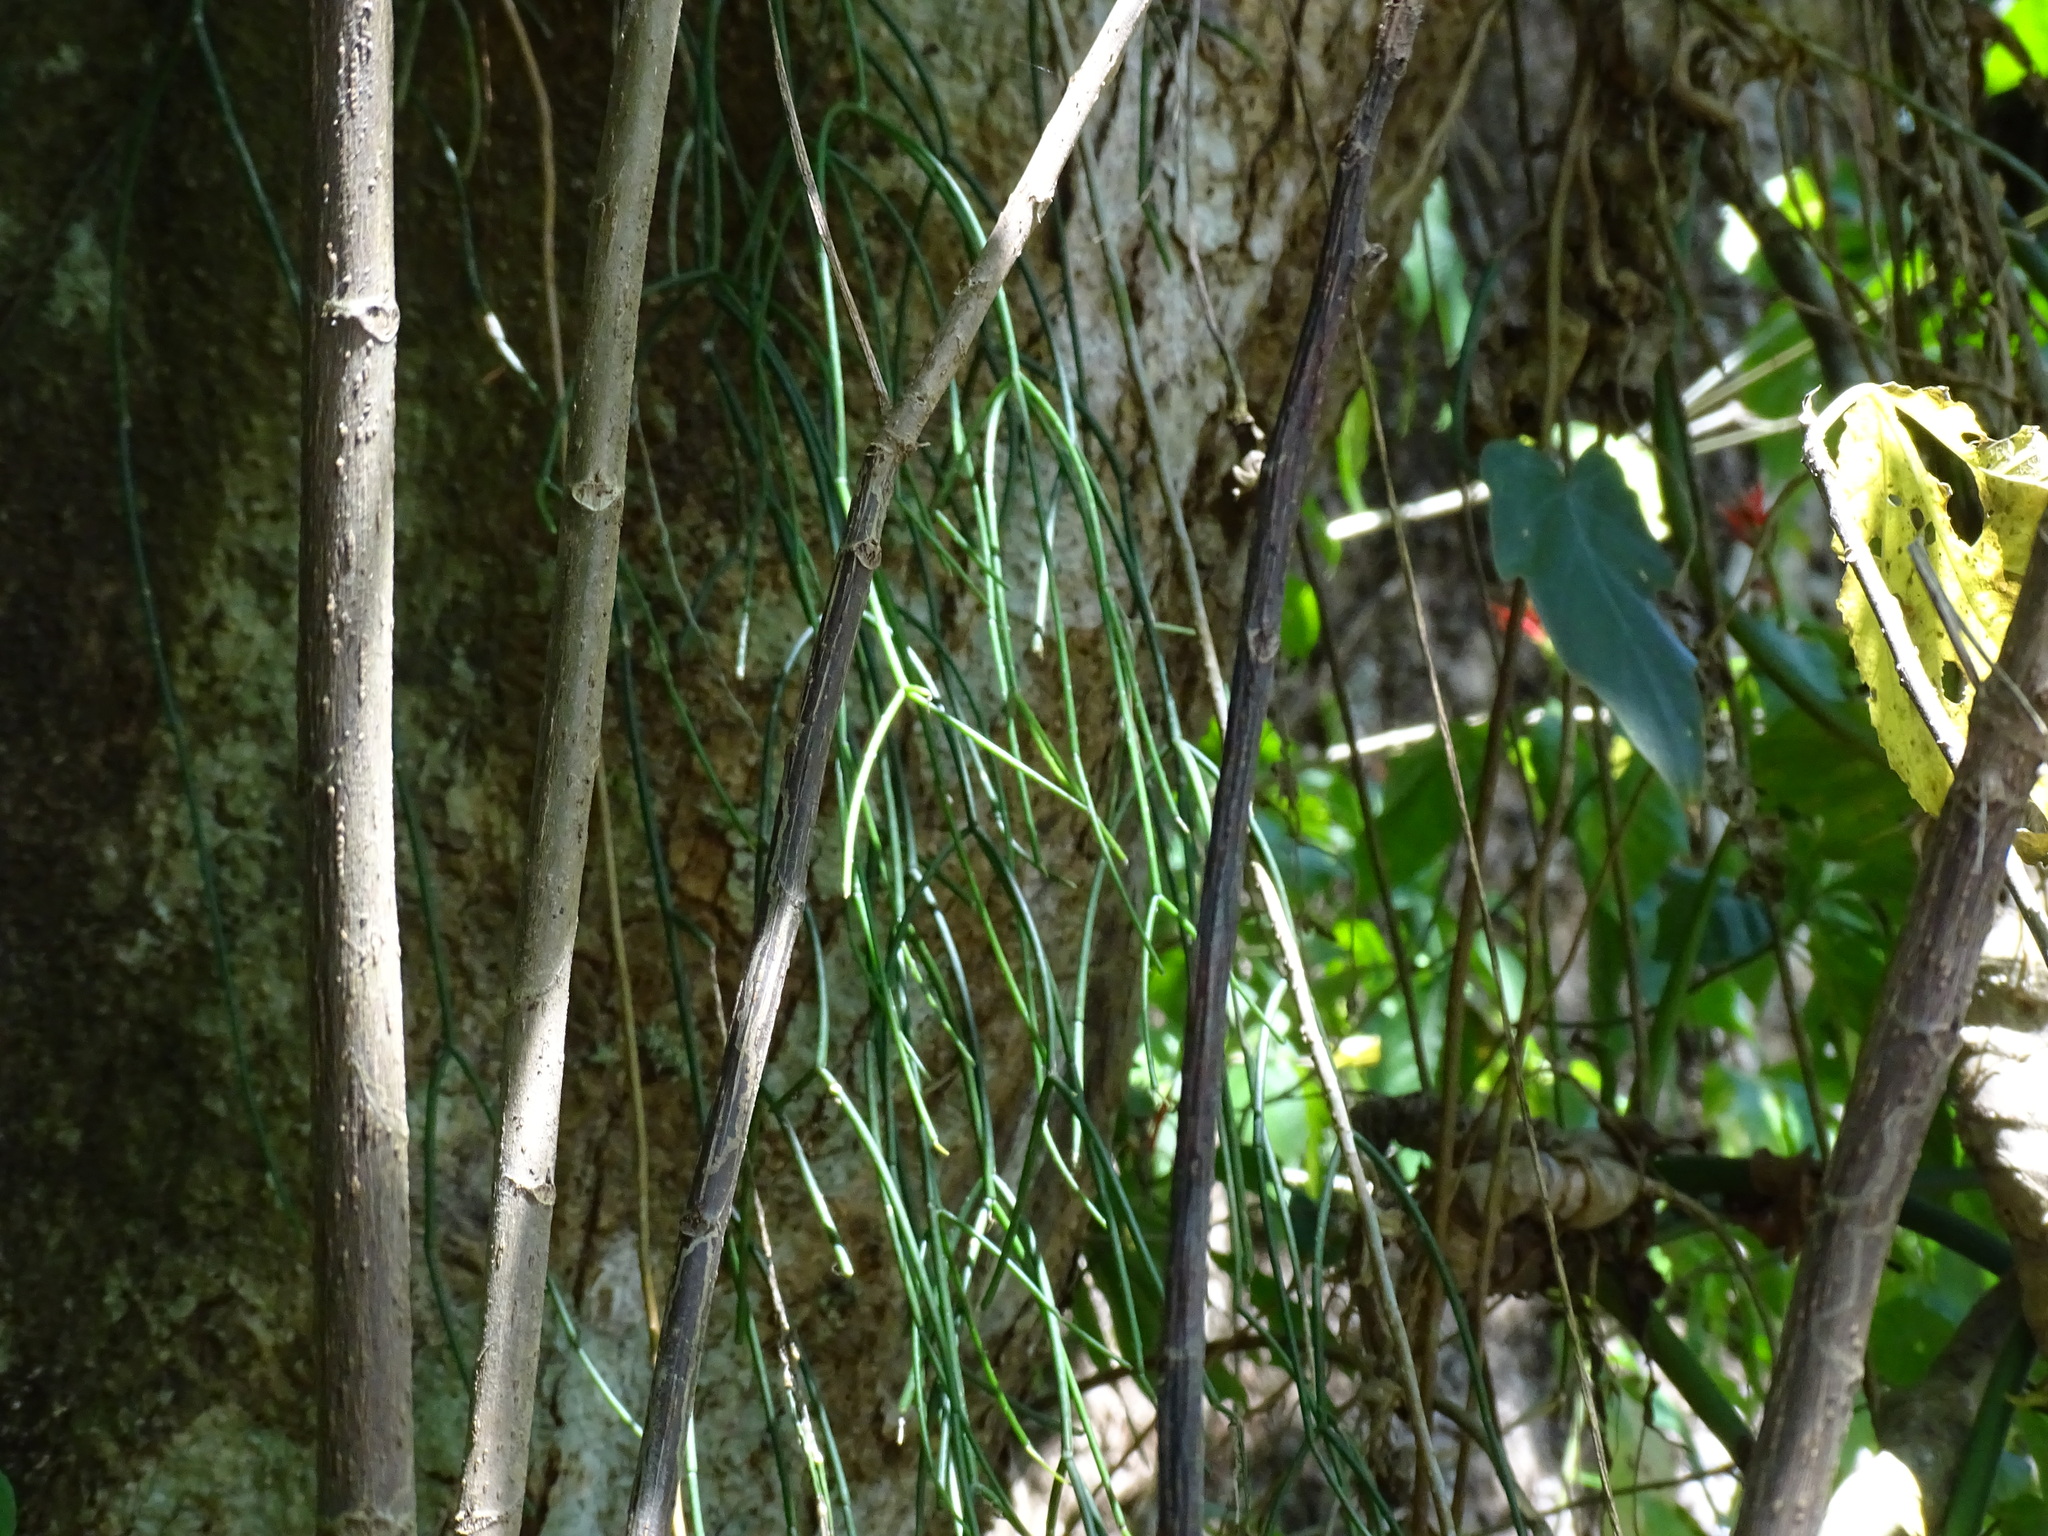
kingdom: Plantae
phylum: Tracheophyta
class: Magnoliopsida
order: Caryophyllales
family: Cactaceae
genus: Rhipsalis
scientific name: Rhipsalis baccifera
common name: Mistletoe cactus
